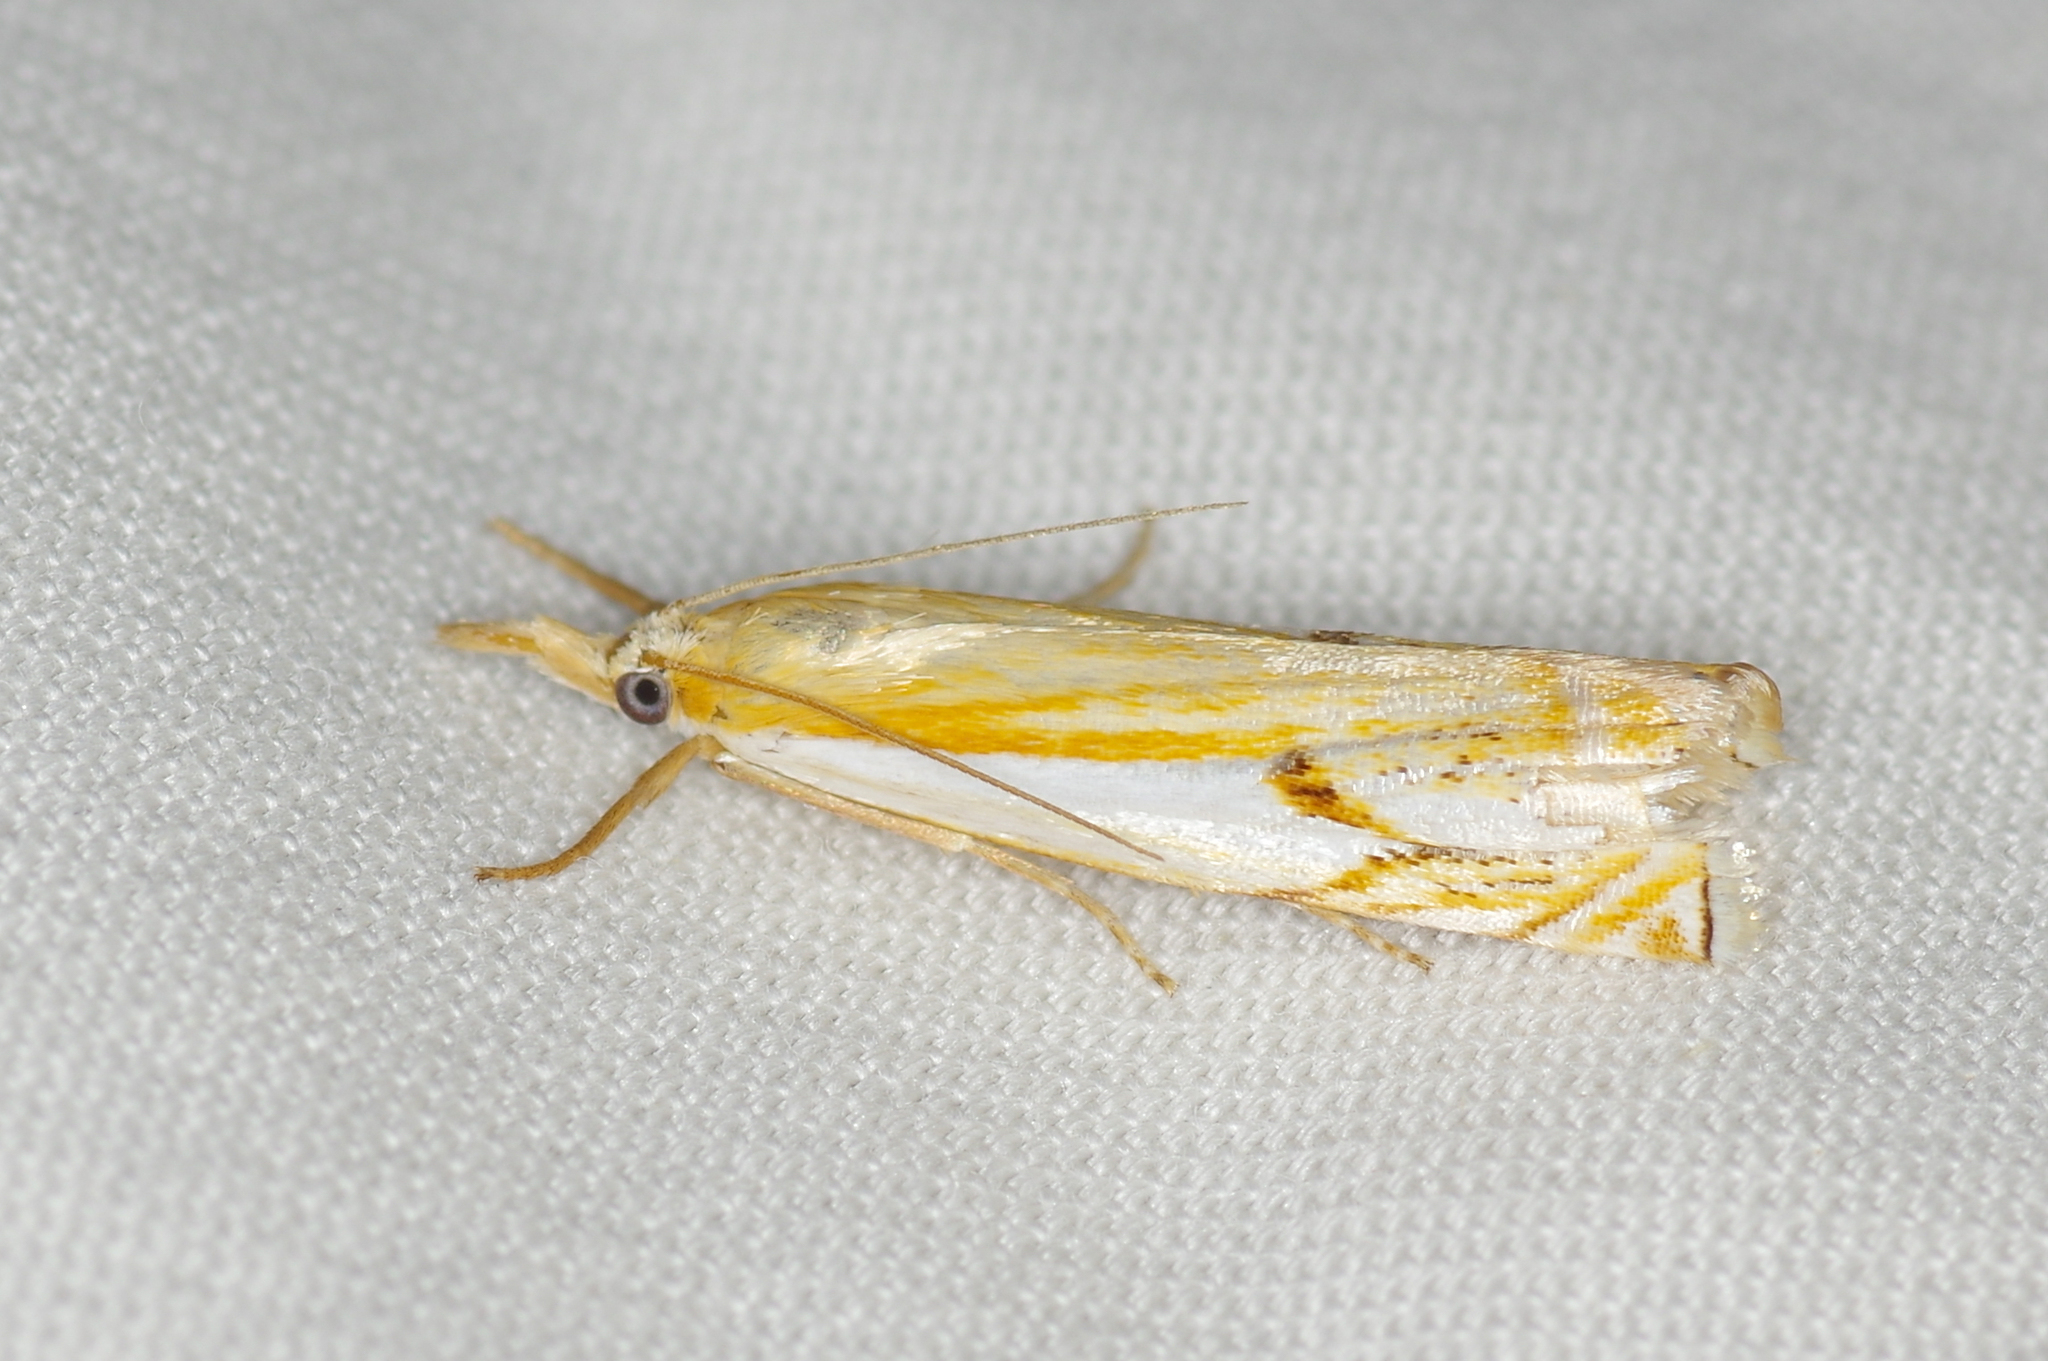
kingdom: Animalia
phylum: Arthropoda
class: Insecta
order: Lepidoptera
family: Crambidae
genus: Crambus
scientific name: Crambus agitatellus
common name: Double-banded grass-veneer
